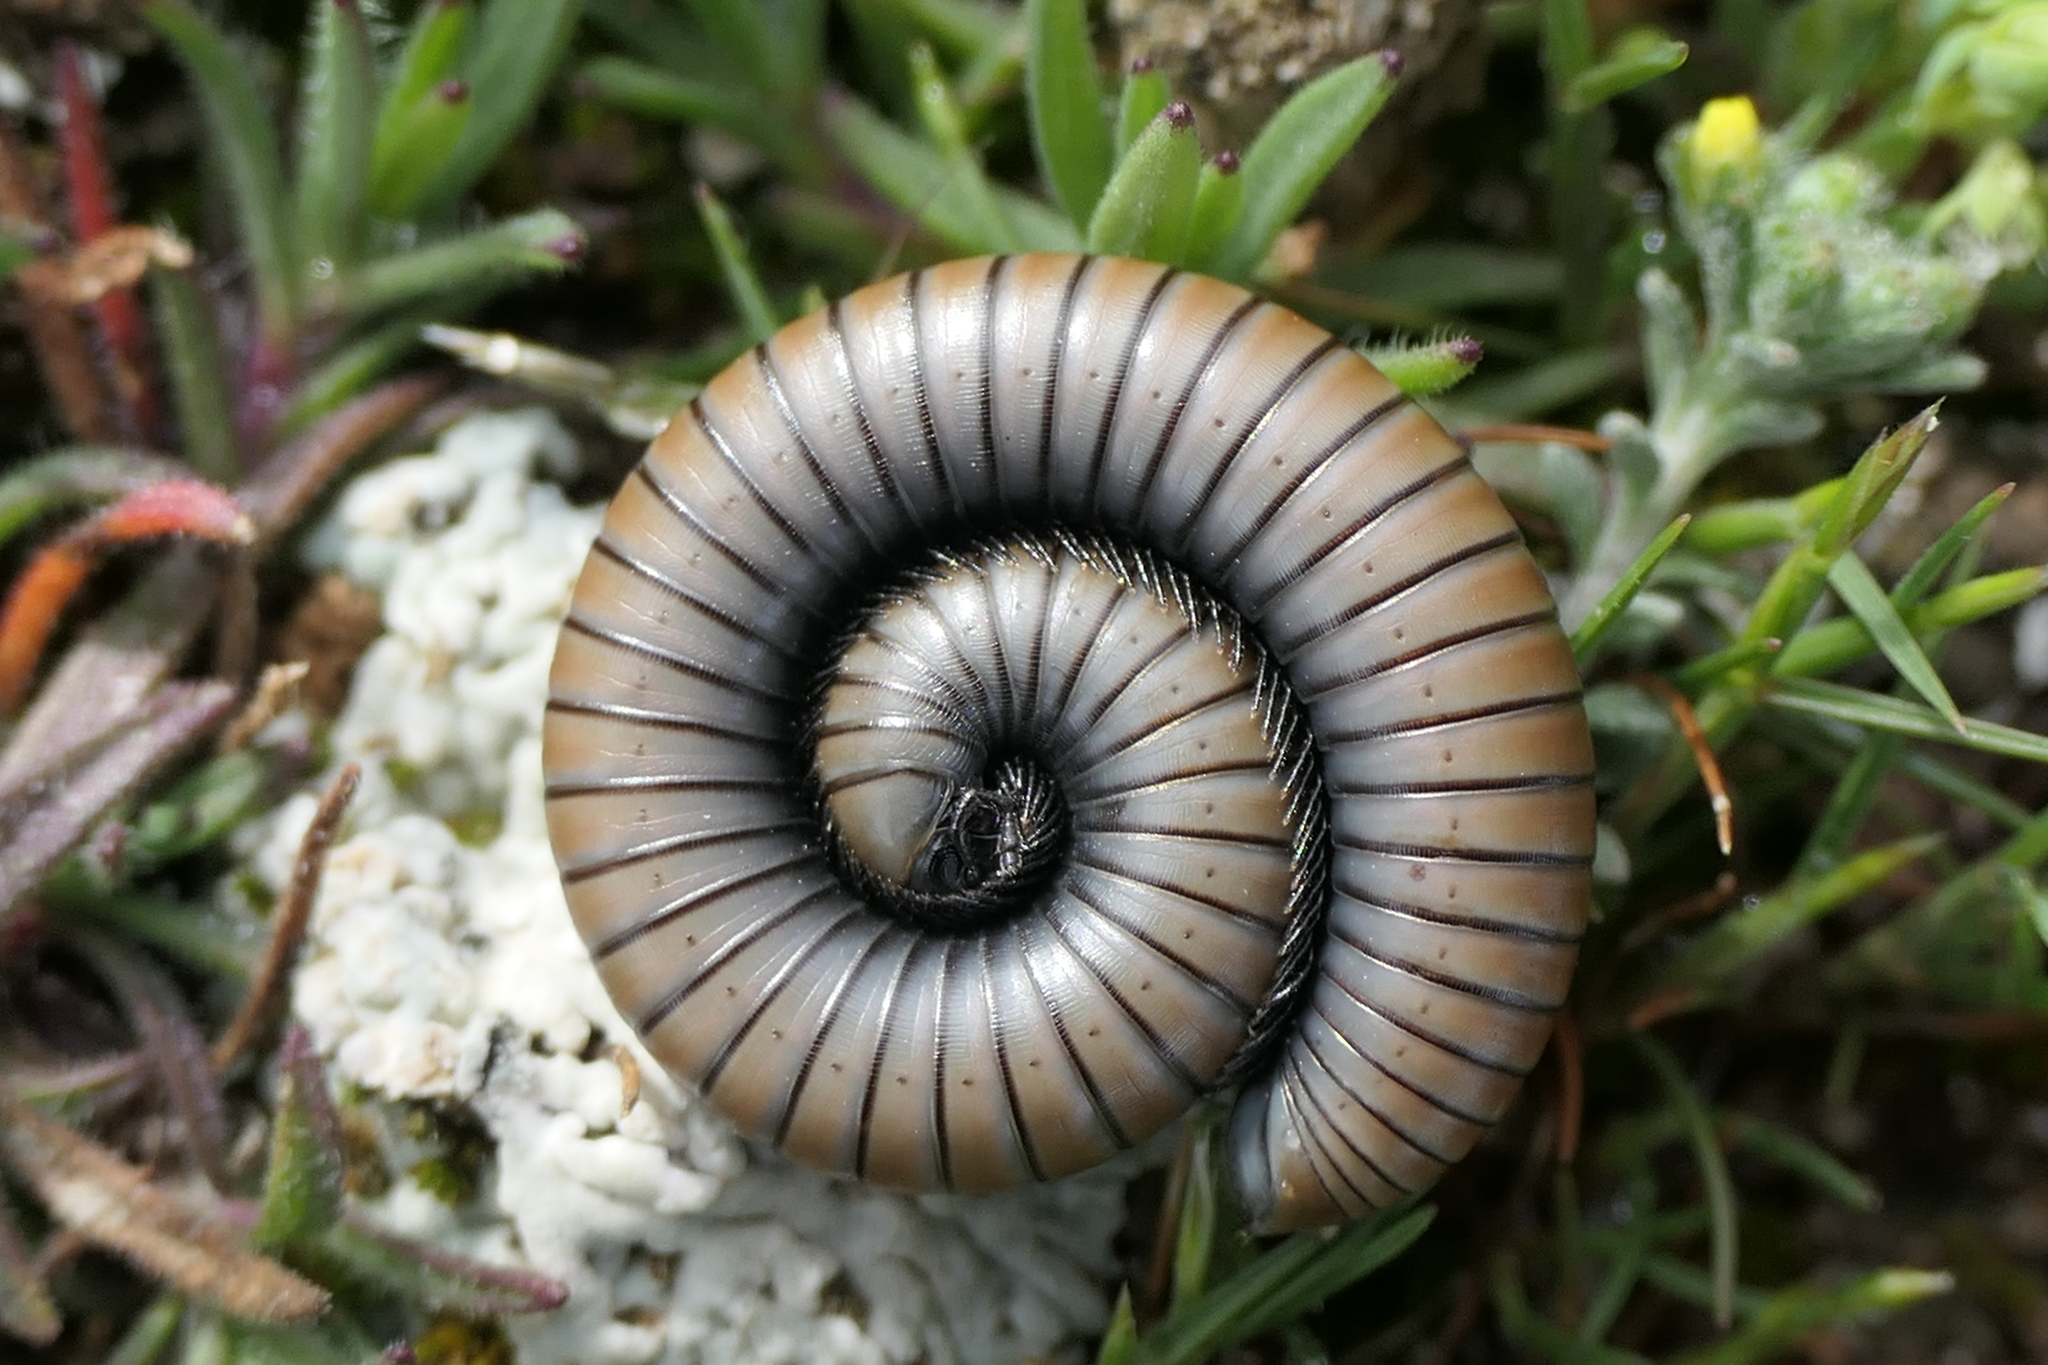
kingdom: Animalia
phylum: Arthropoda
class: Diplopoda
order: Julida
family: Julidae
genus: Ommatoiulus
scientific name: Ommatoiulus rutilans
